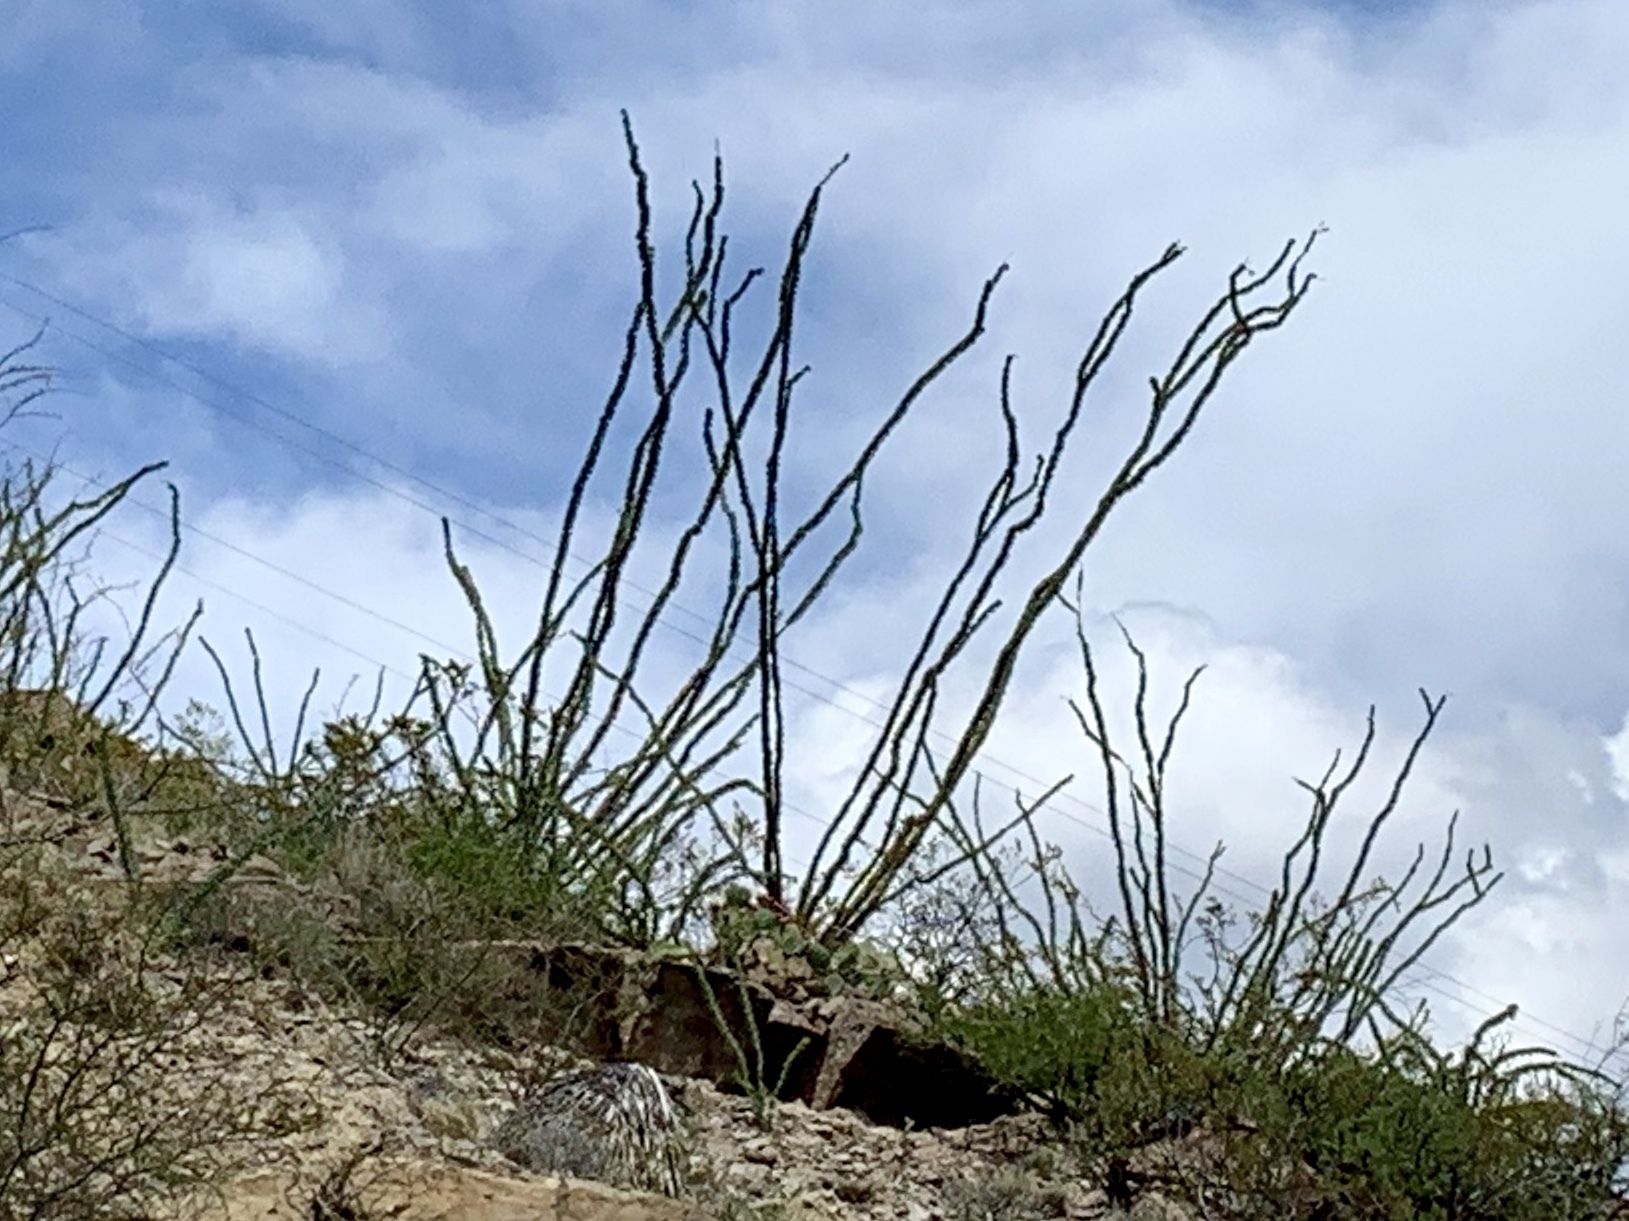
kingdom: Plantae
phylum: Tracheophyta
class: Magnoliopsida
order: Ericales
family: Fouquieriaceae
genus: Fouquieria
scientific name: Fouquieria splendens
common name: Vine-cactus
